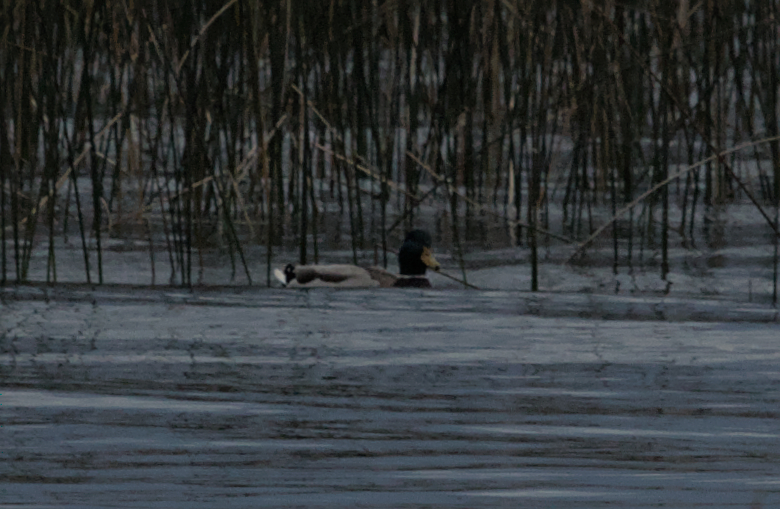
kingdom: Animalia
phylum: Chordata
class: Aves
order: Anseriformes
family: Anatidae
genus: Anas
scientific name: Anas platyrhynchos
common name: Mallard
